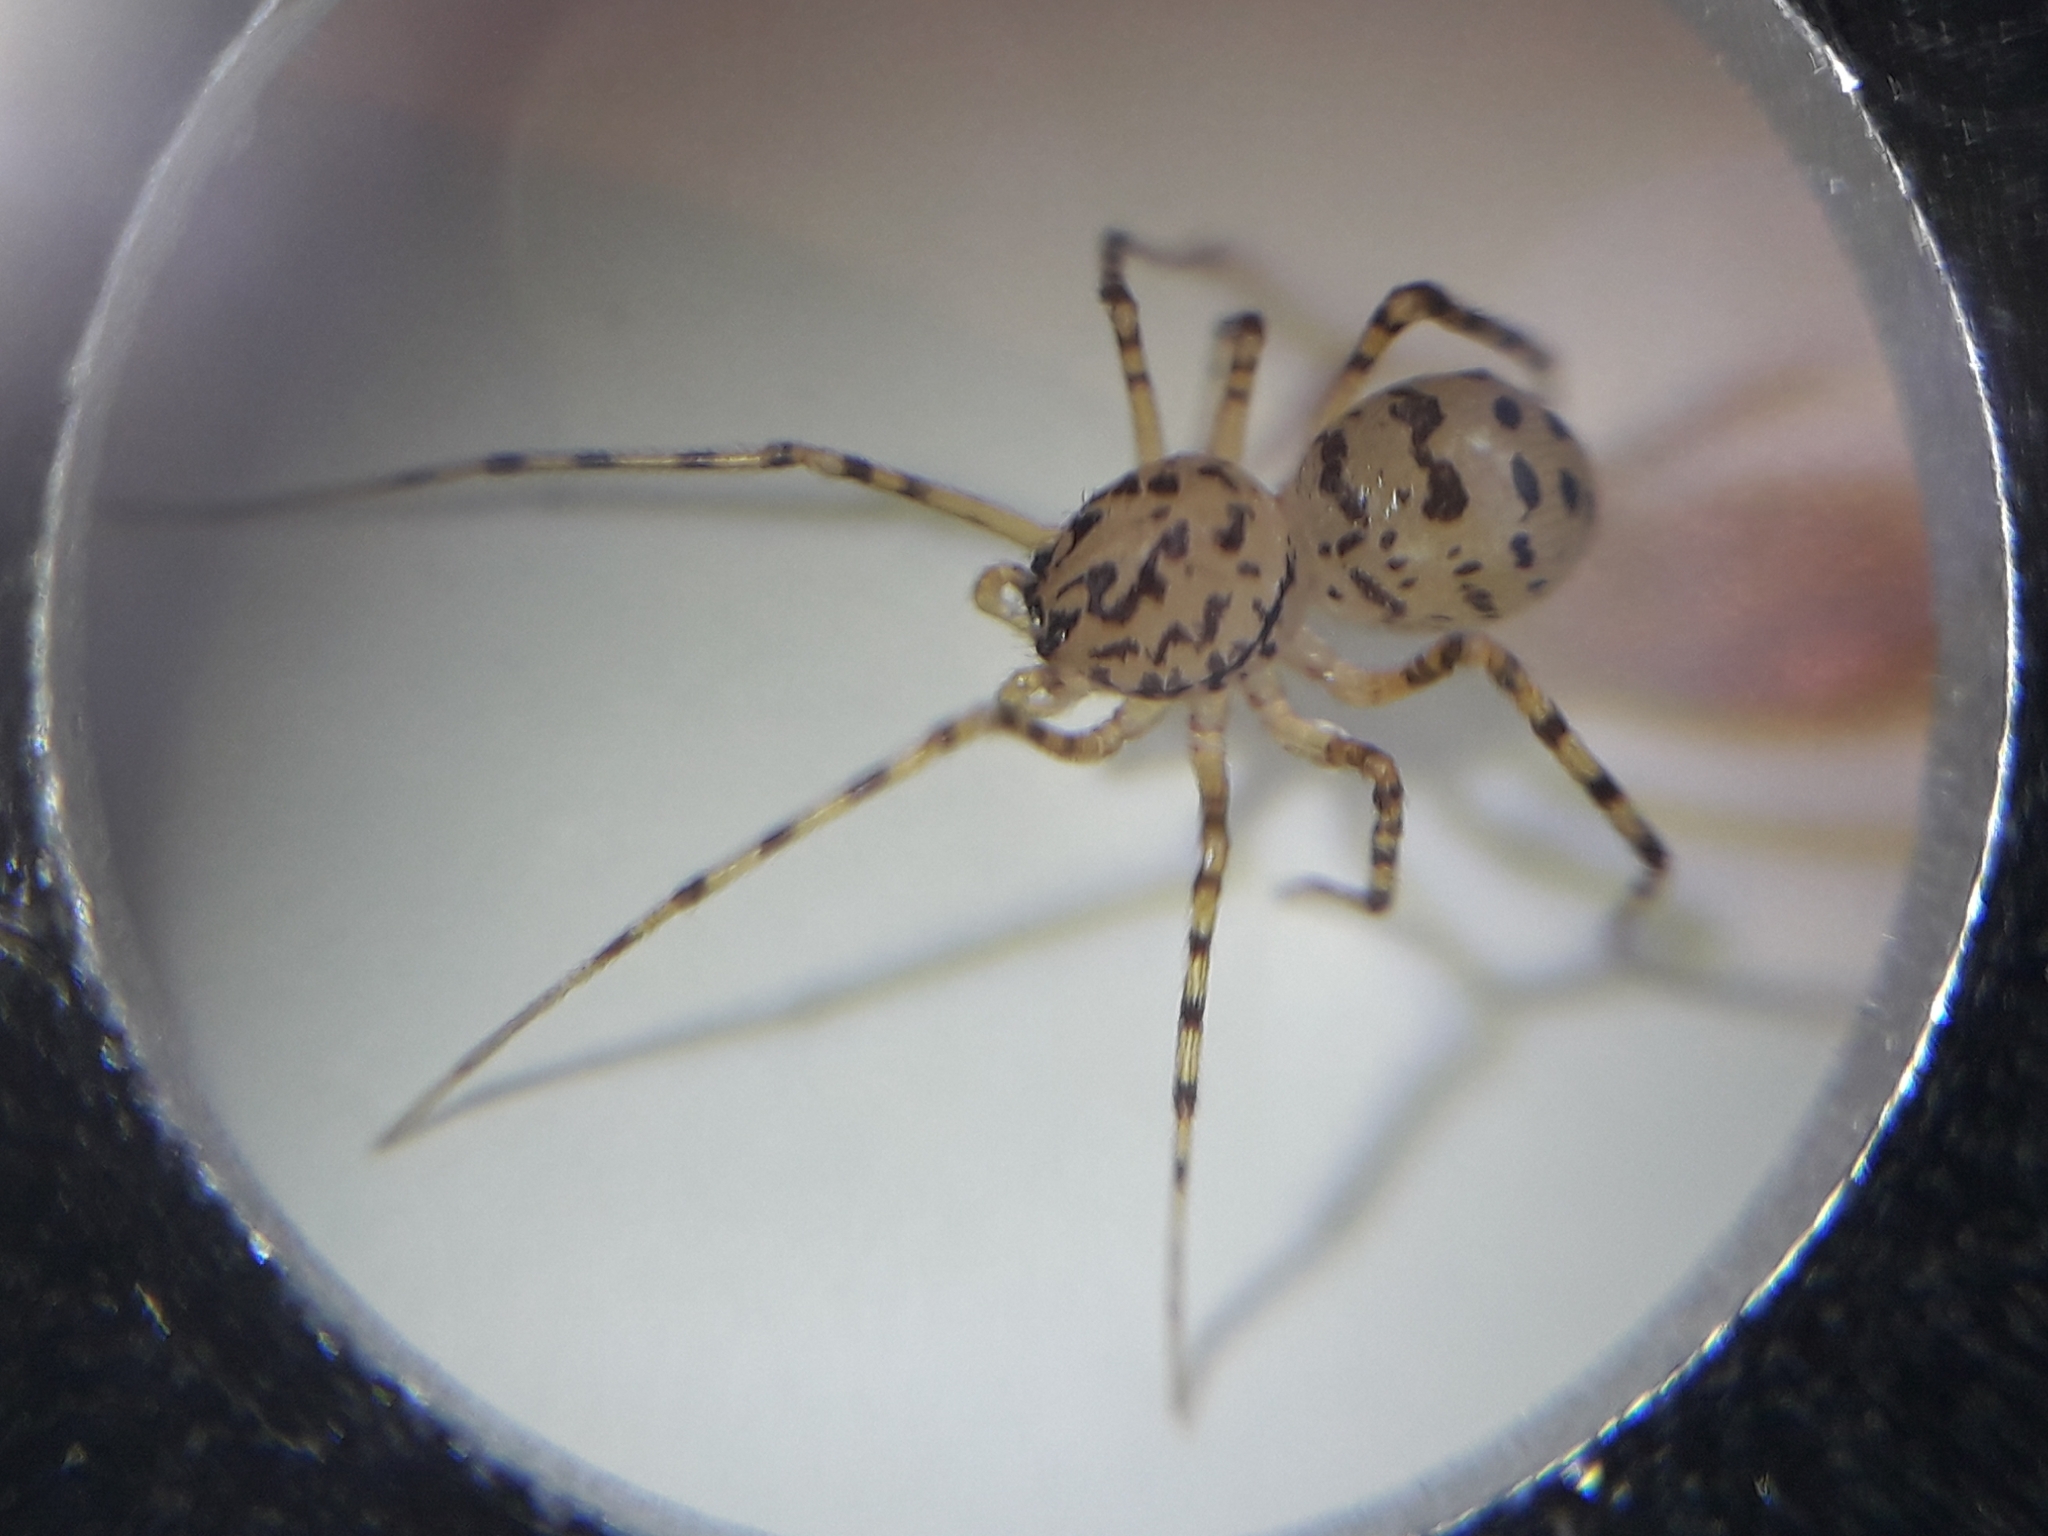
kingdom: Animalia
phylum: Arthropoda
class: Arachnida
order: Araneae
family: Scytodidae
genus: Scytodes
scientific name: Scytodes thoracica
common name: Spitting spider
